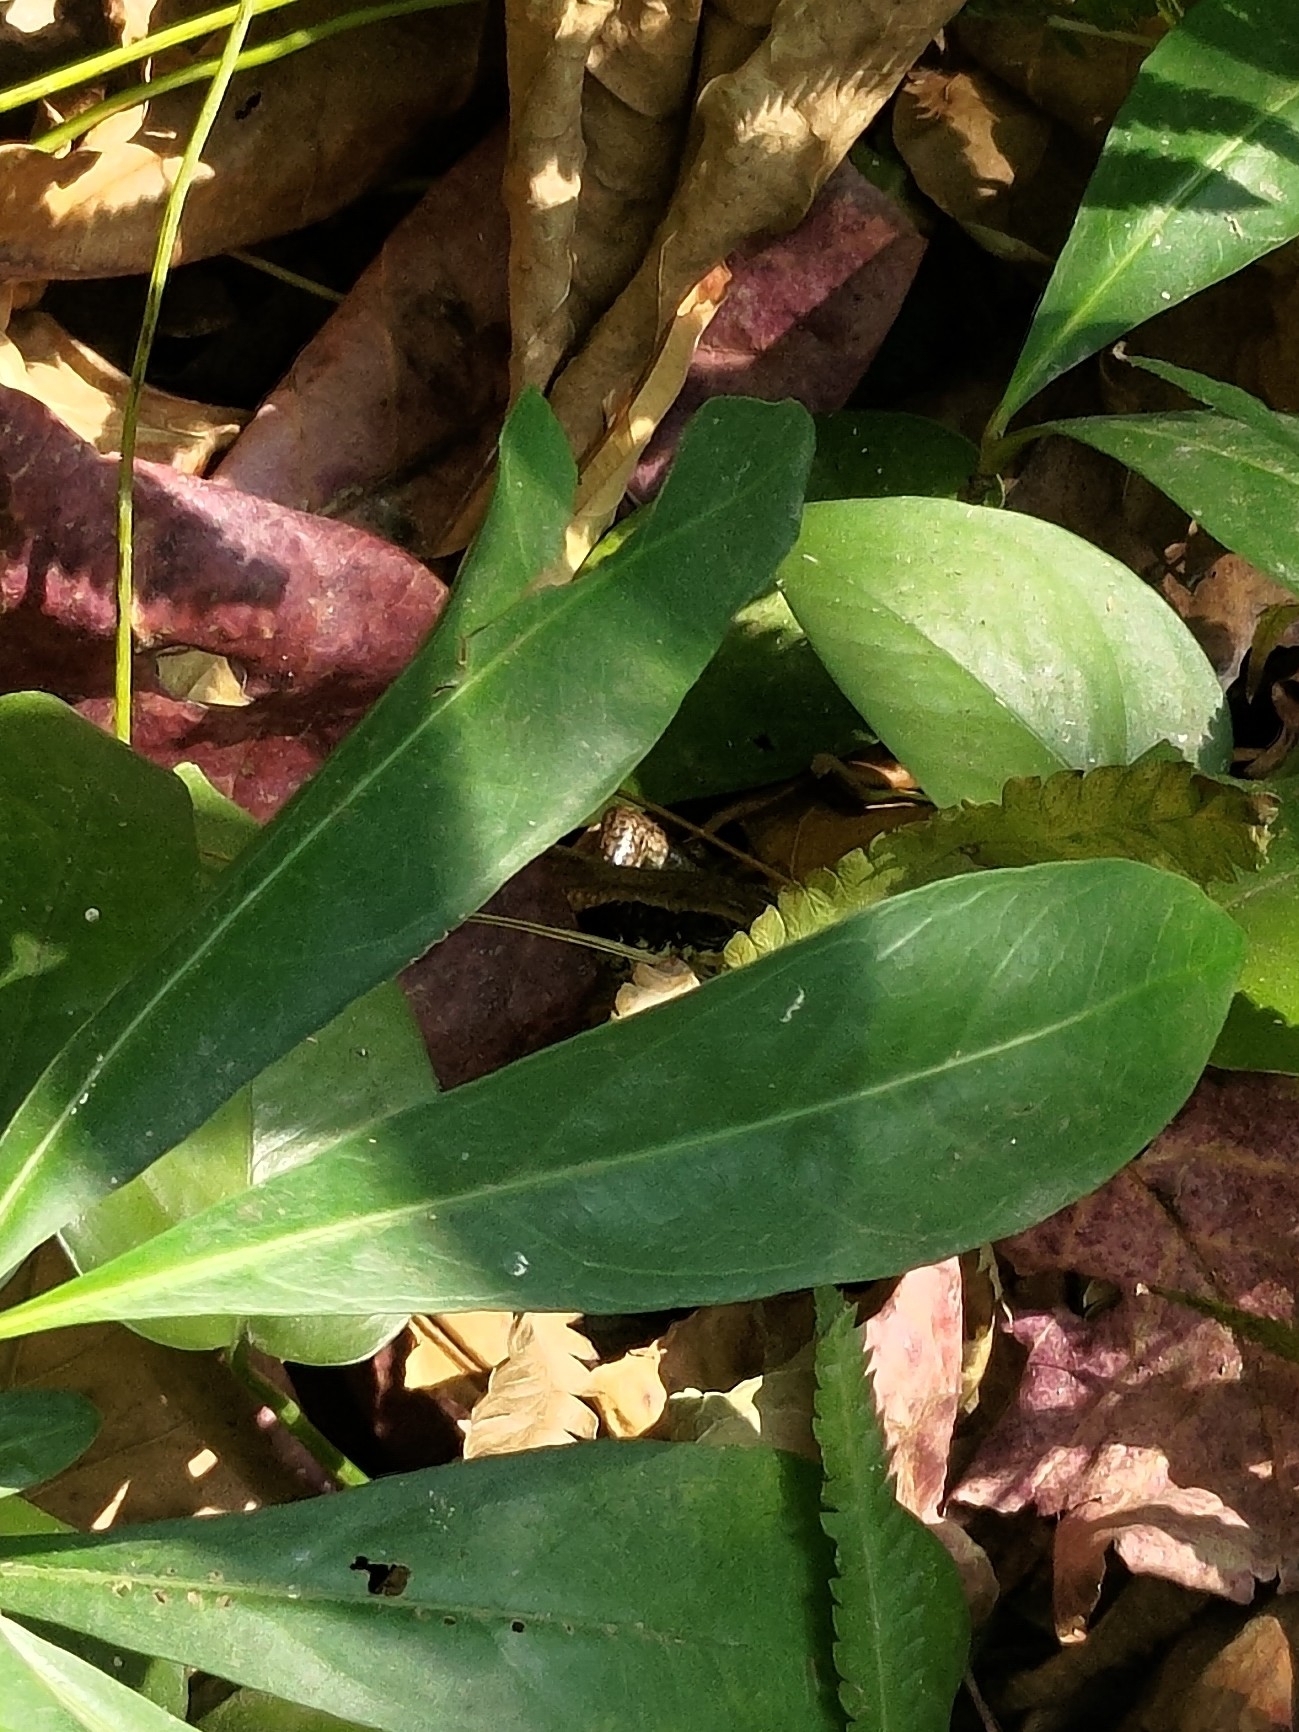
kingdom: Animalia
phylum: Chordata
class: Squamata
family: Scincidae
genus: Eutropis
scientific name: Eutropis longicaudata
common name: Long-tailed sun skink
